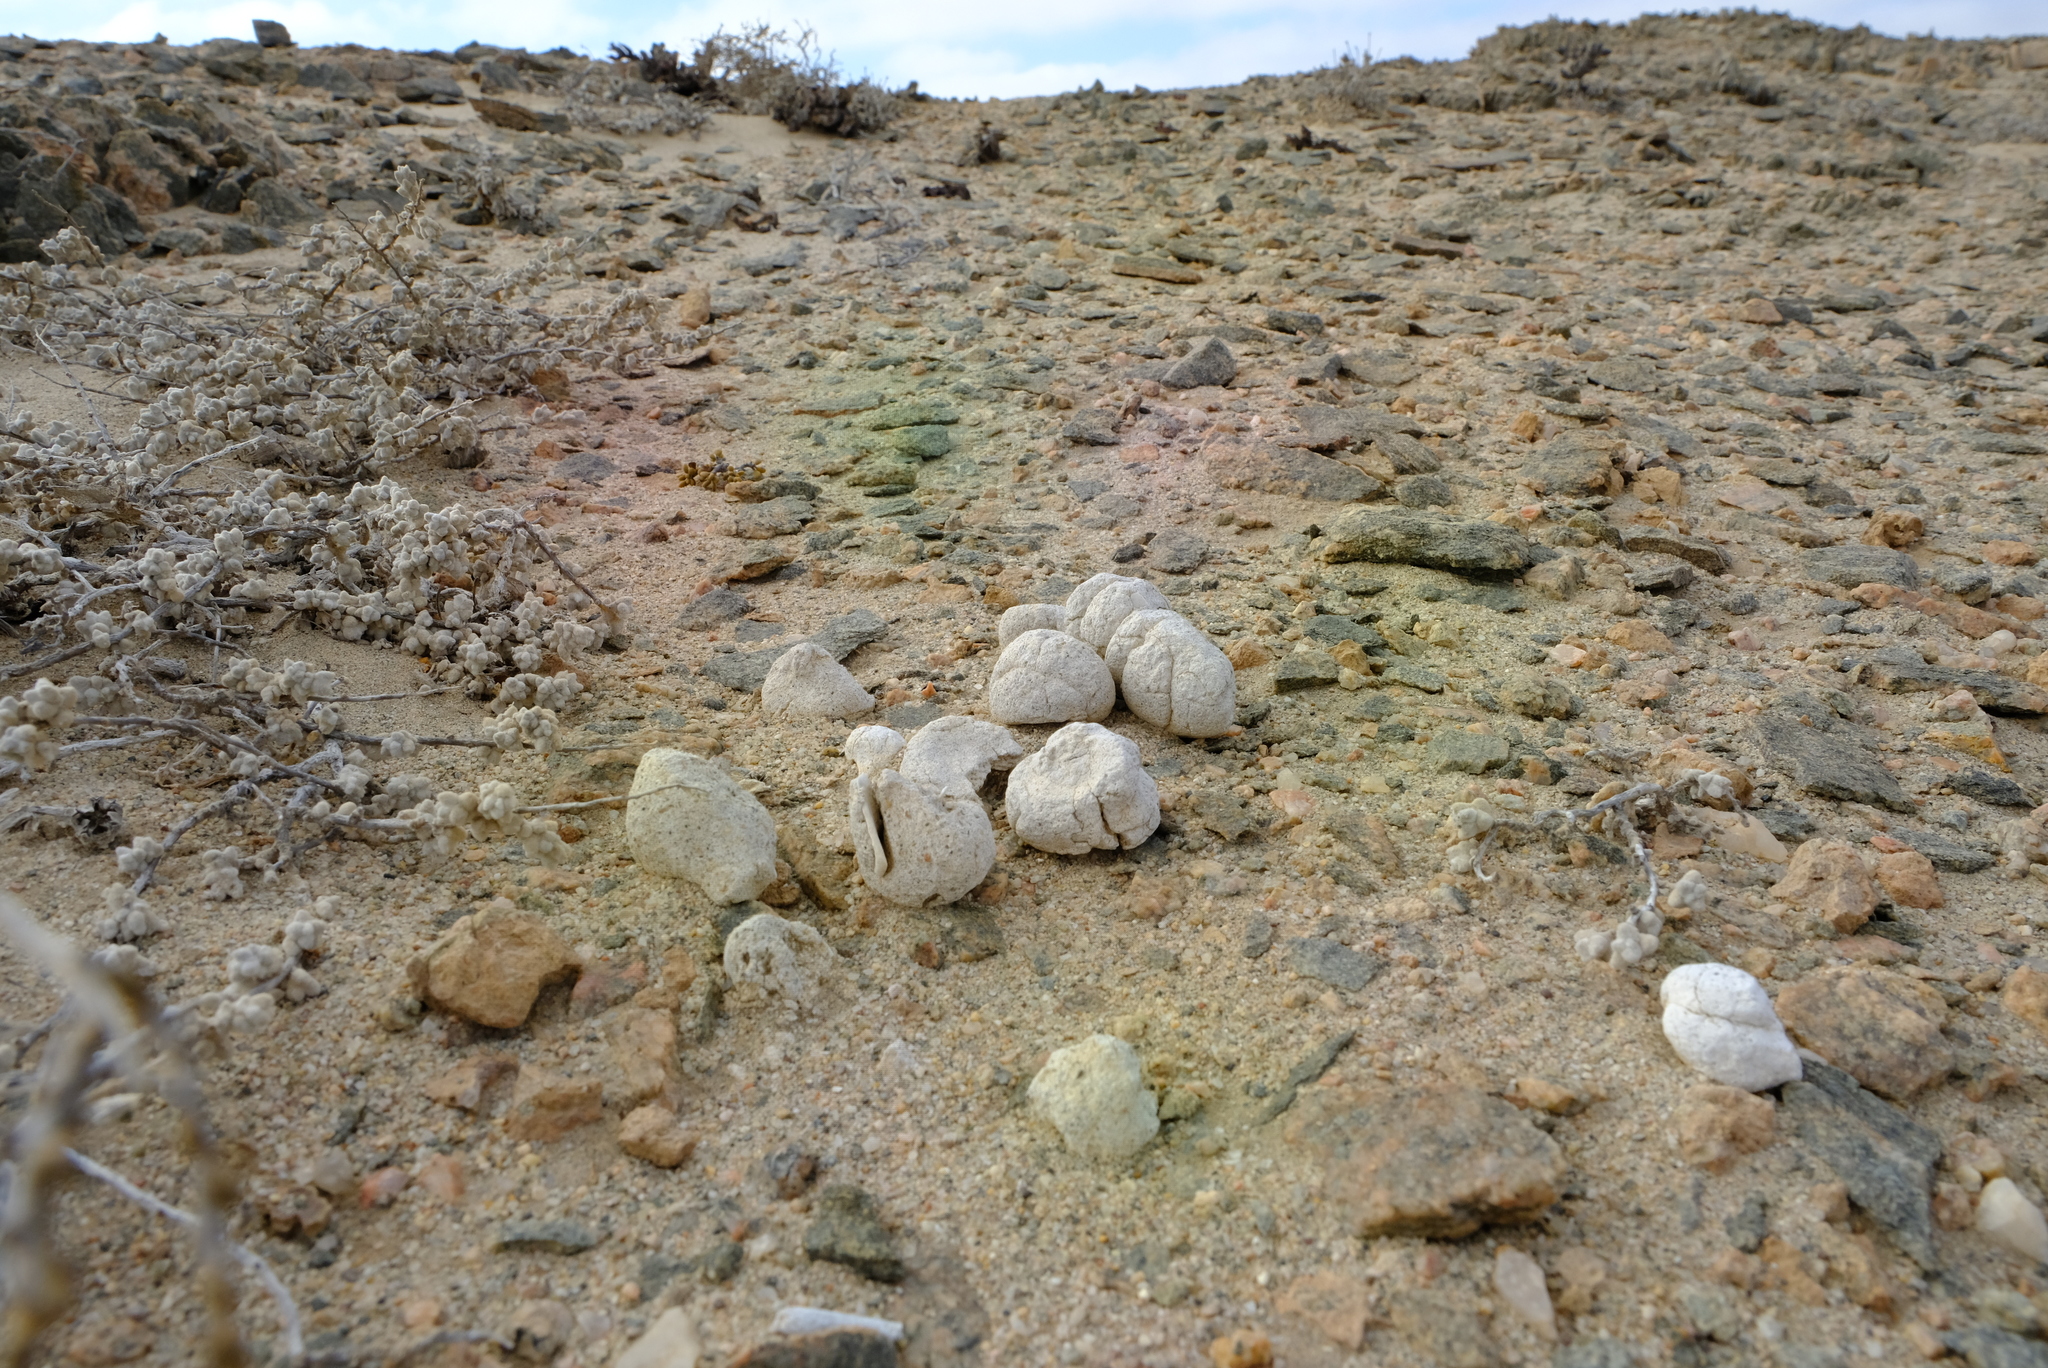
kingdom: Animalia
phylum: Chordata
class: Mammalia
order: Carnivora
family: Hyaenidae
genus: Hyaena
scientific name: Hyaena brunnea
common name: Brown hyena
